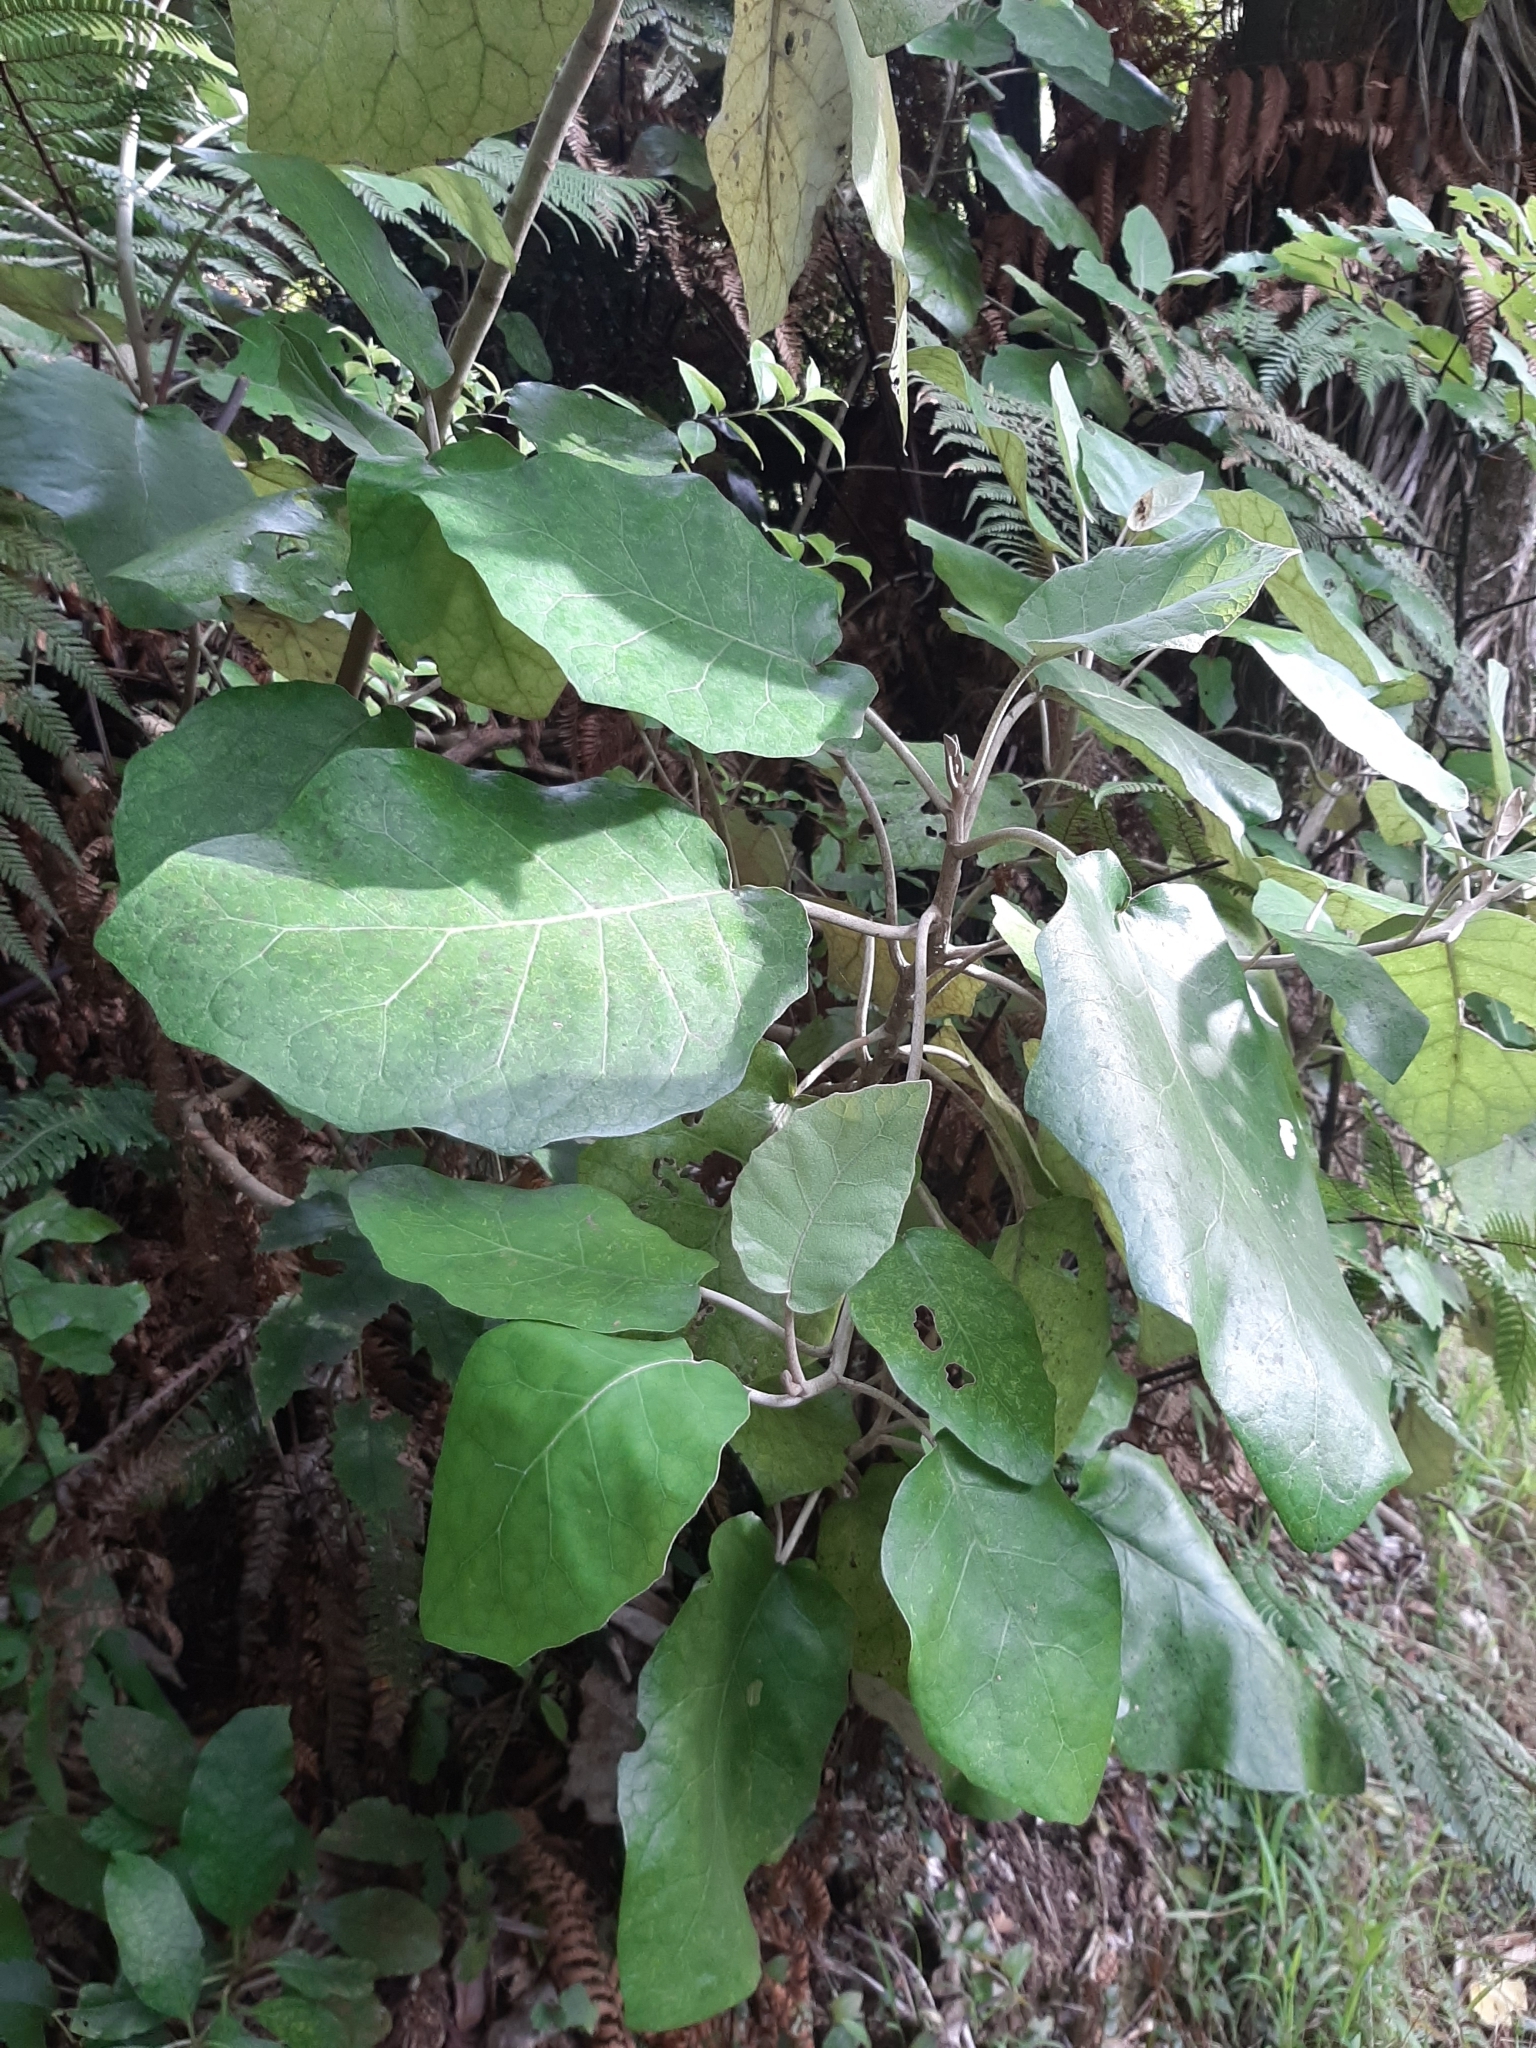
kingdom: Plantae
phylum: Tracheophyta
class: Magnoliopsida
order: Asterales
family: Asteraceae
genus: Brachyglottis
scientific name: Brachyglottis repanda
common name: Hedge ragwort
